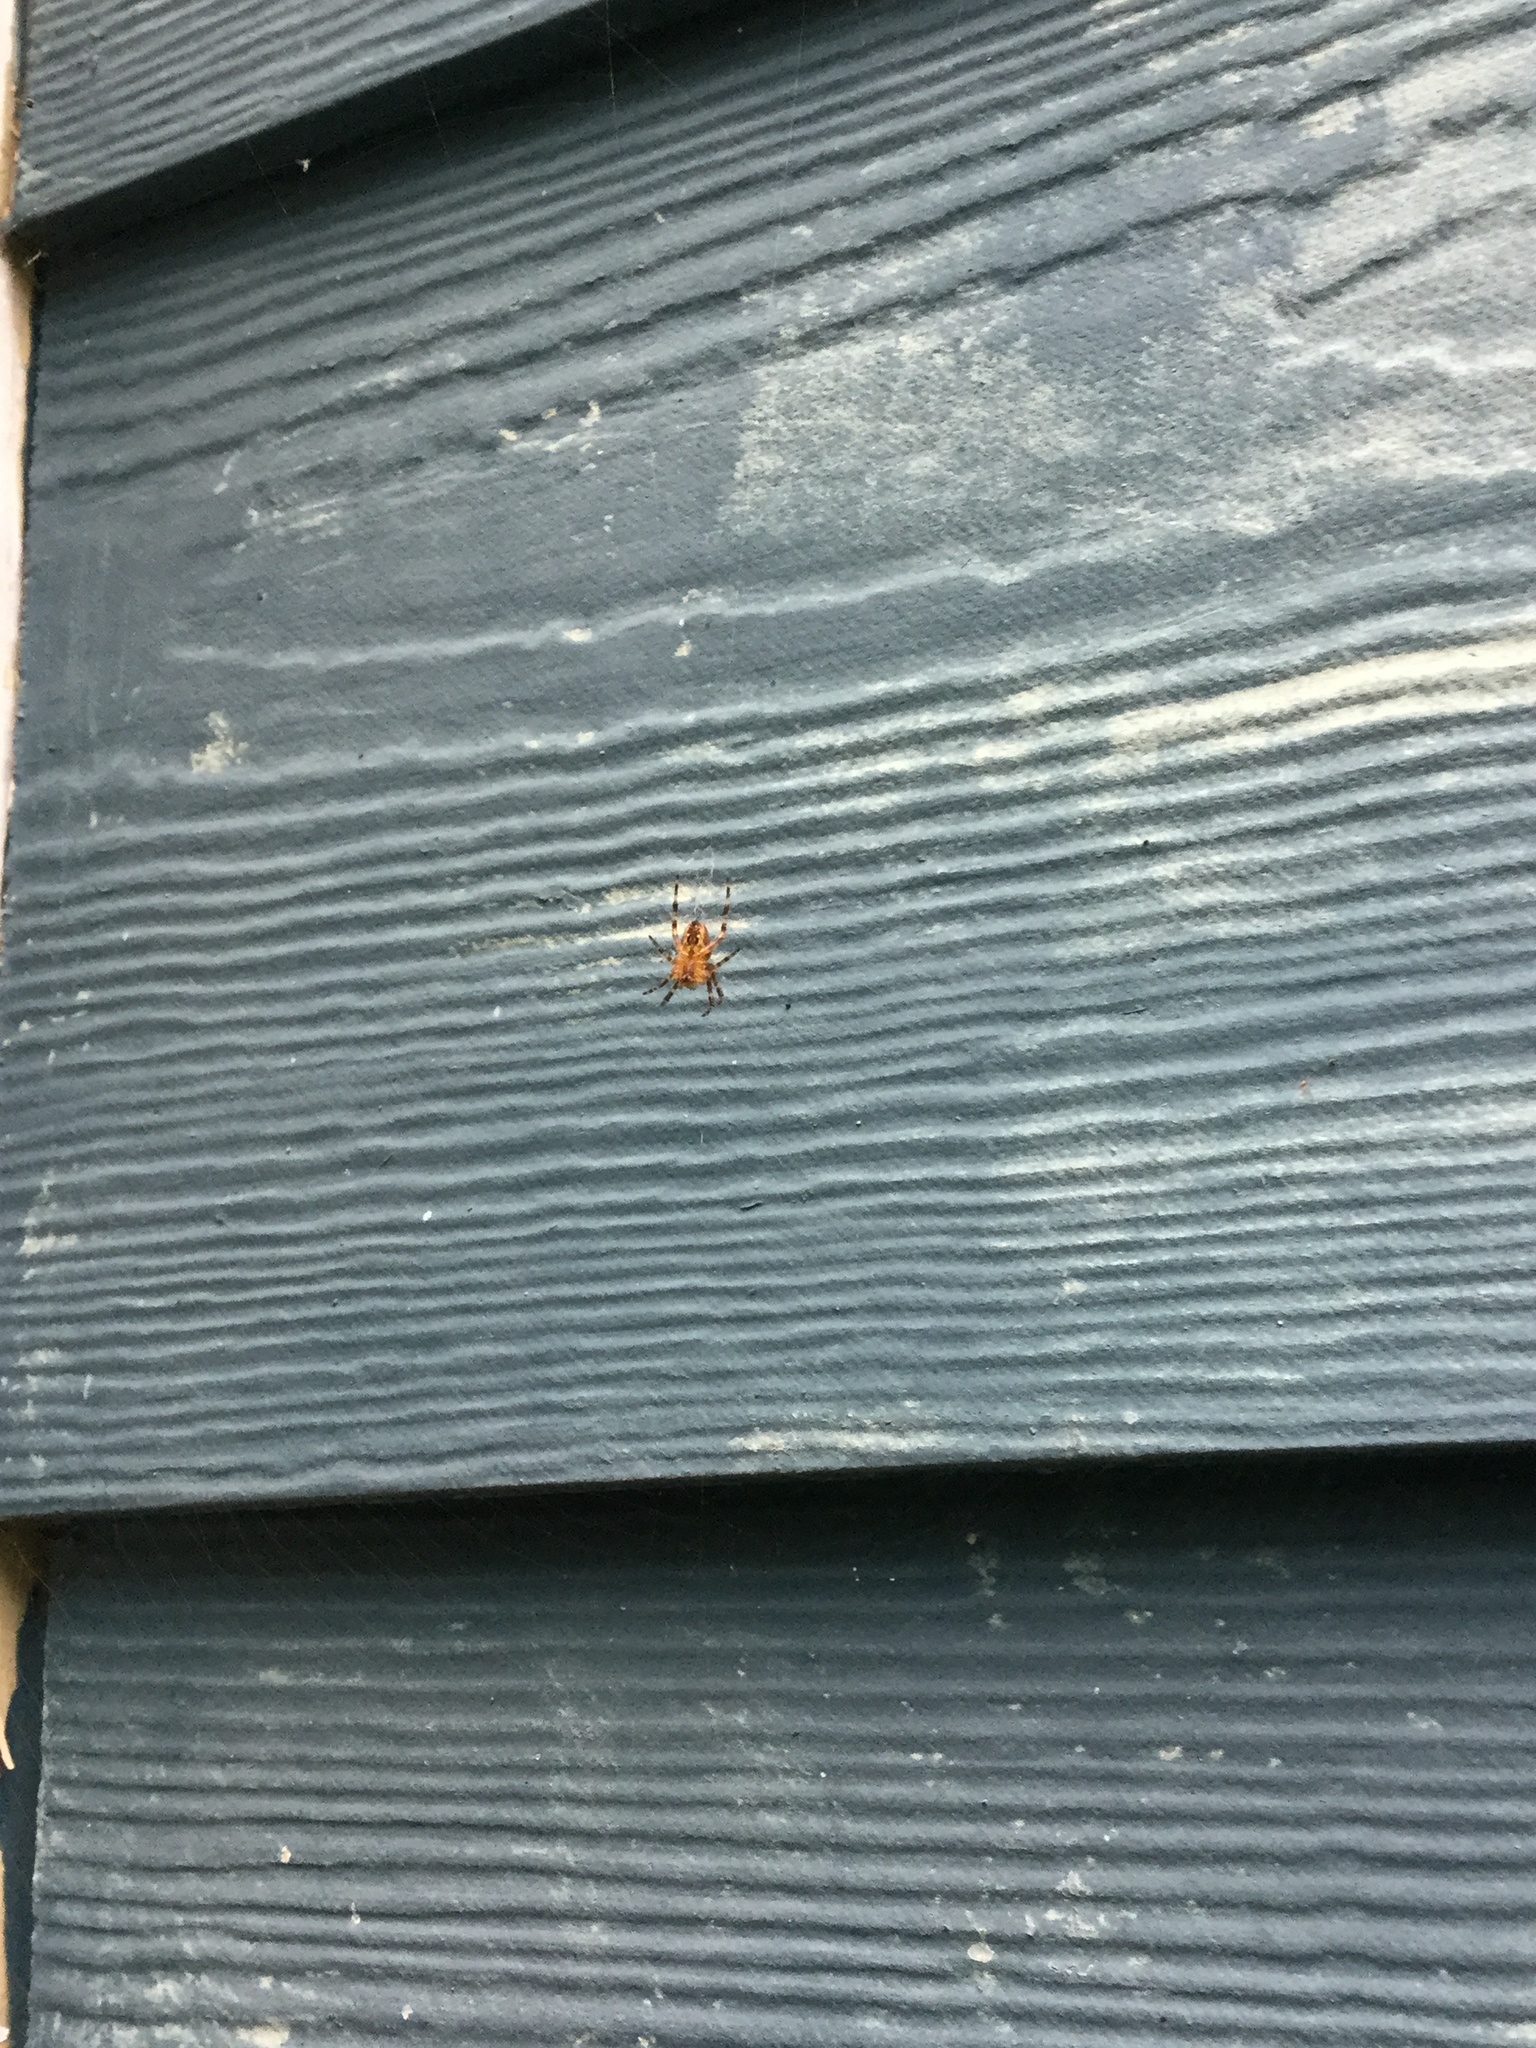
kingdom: Animalia
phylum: Arthropoda
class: Arachnida
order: Araneae
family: Araneidae
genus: Araneus
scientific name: Araneus diadematus
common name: Cross orbweaver
